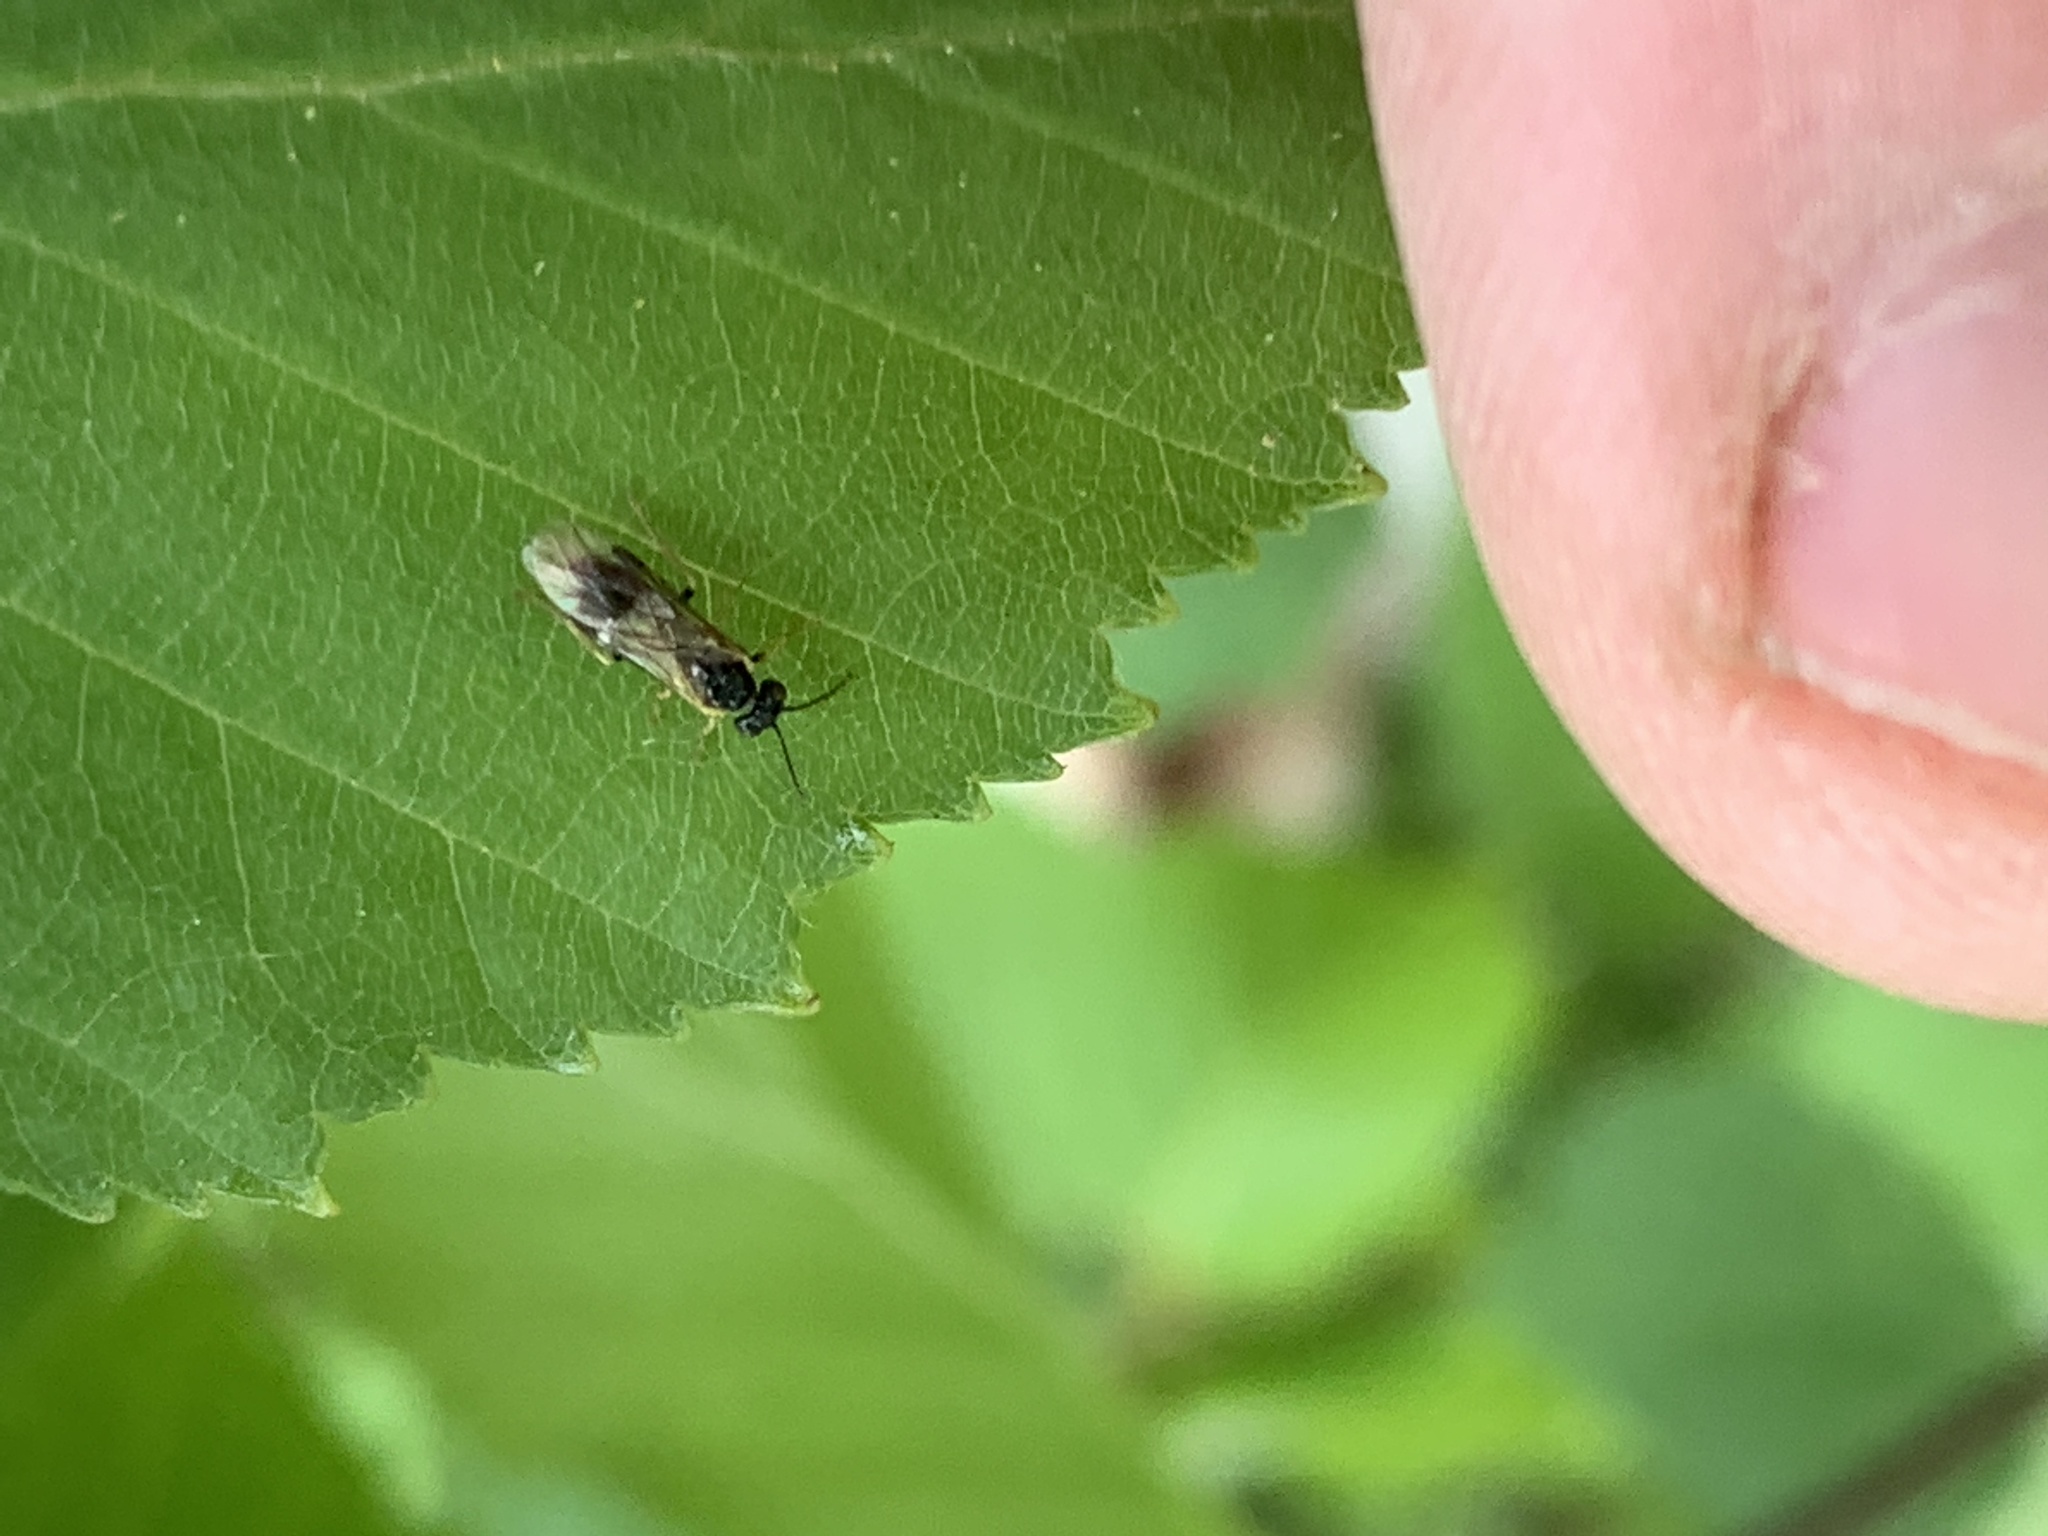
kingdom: Animalia
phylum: Arthropoda
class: Insecta
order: Hymenoptera
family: Tenthredinidae
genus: Fenusella
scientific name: Fenusella nana
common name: Early birch leaf edgeminer
